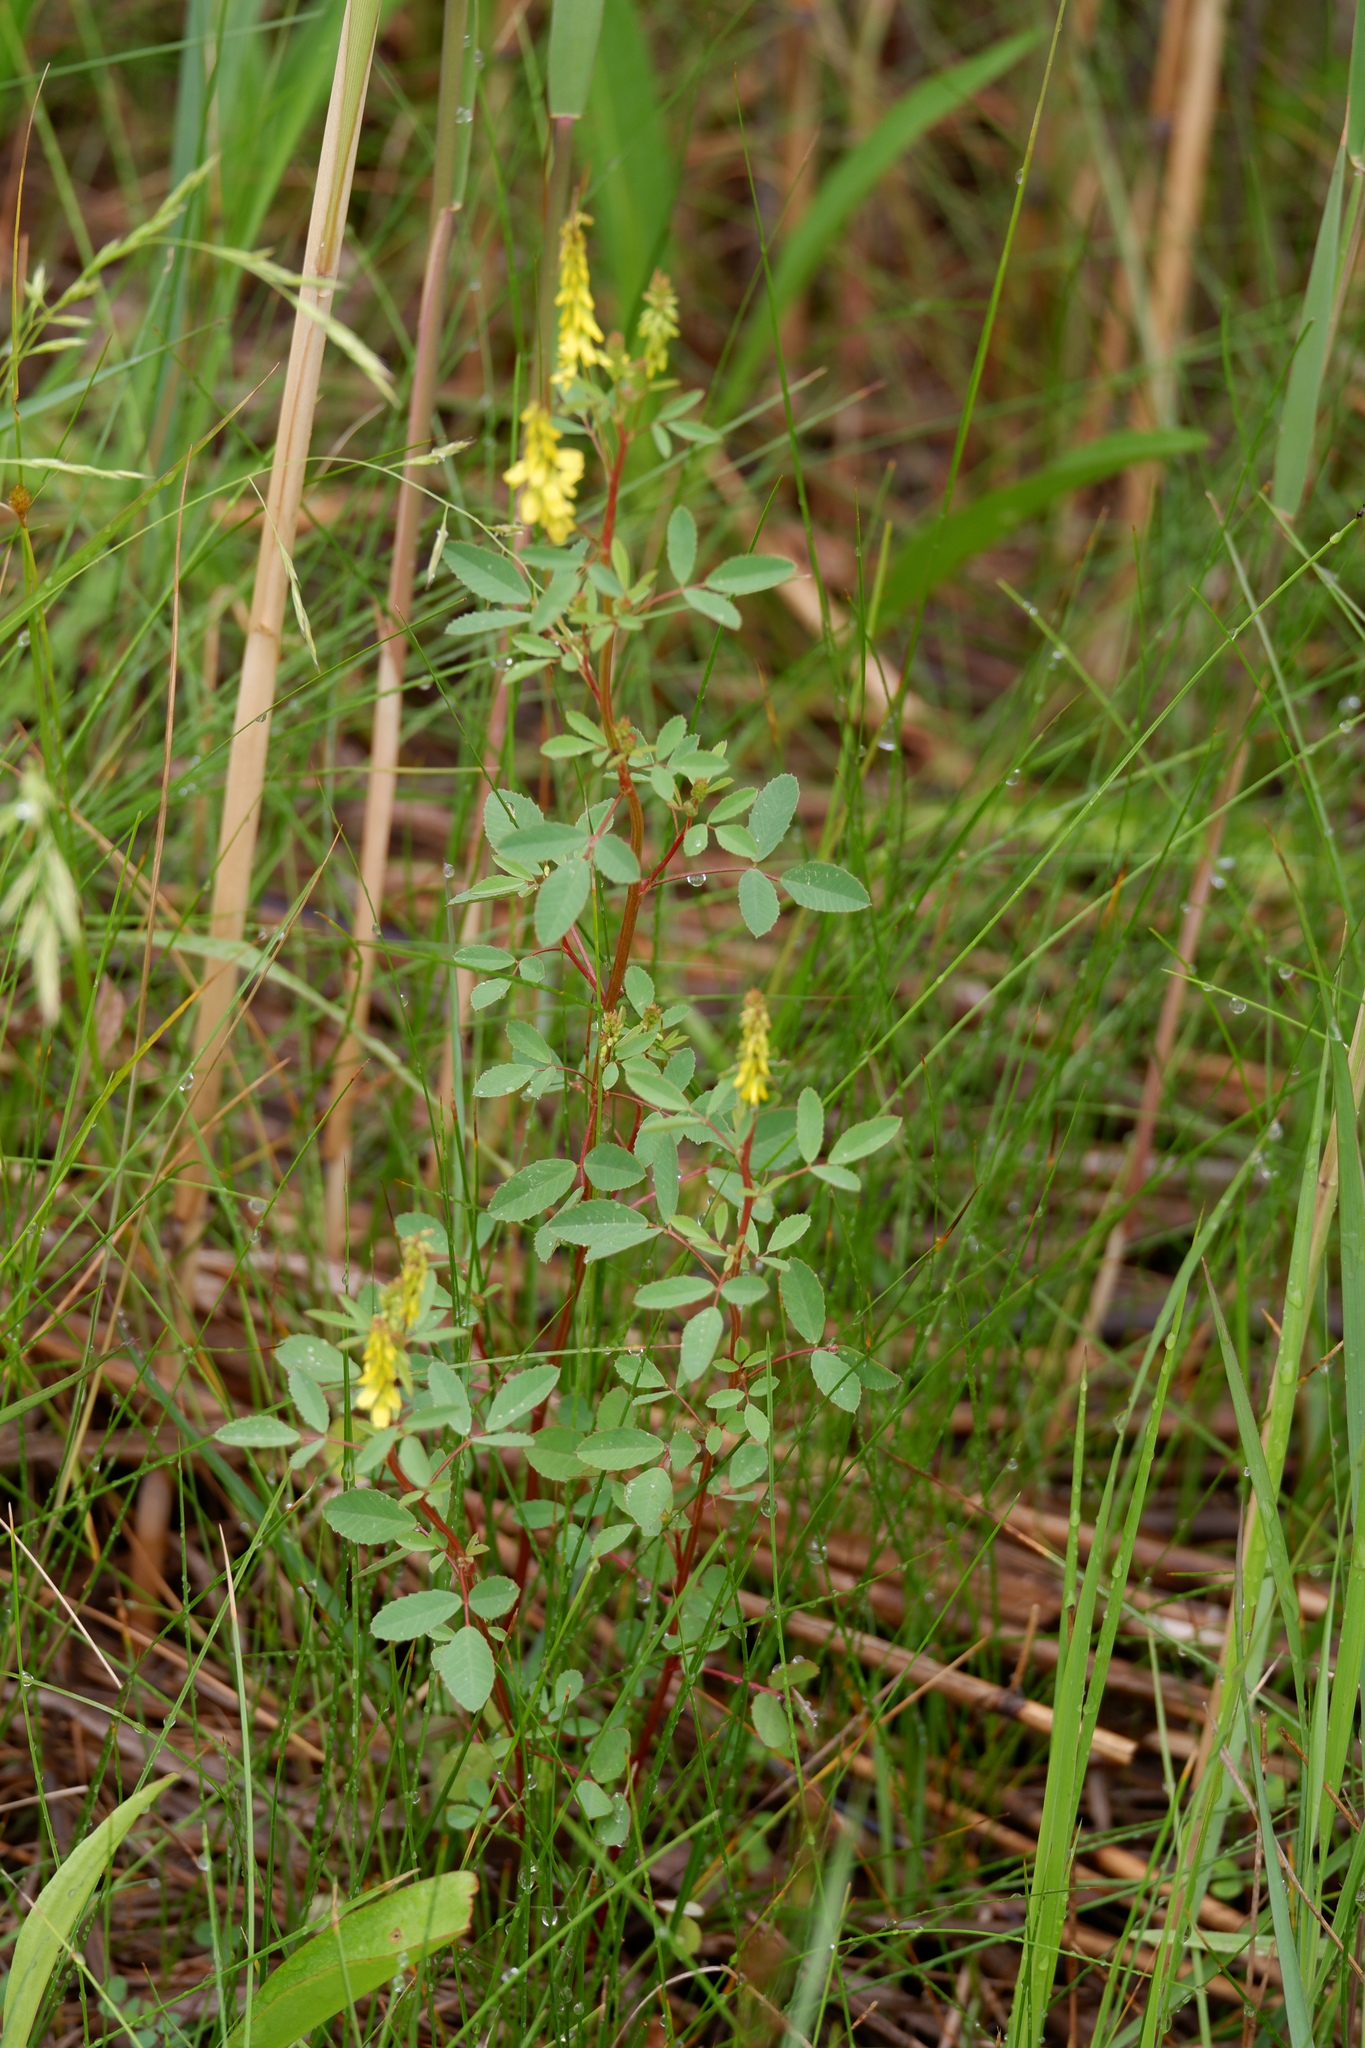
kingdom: Plantae
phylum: Tracheophyta
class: Magnoliopsida
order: Fabales
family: Fabaceae
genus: Melilotus
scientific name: Melilotus officinalis
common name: Sweetclover
